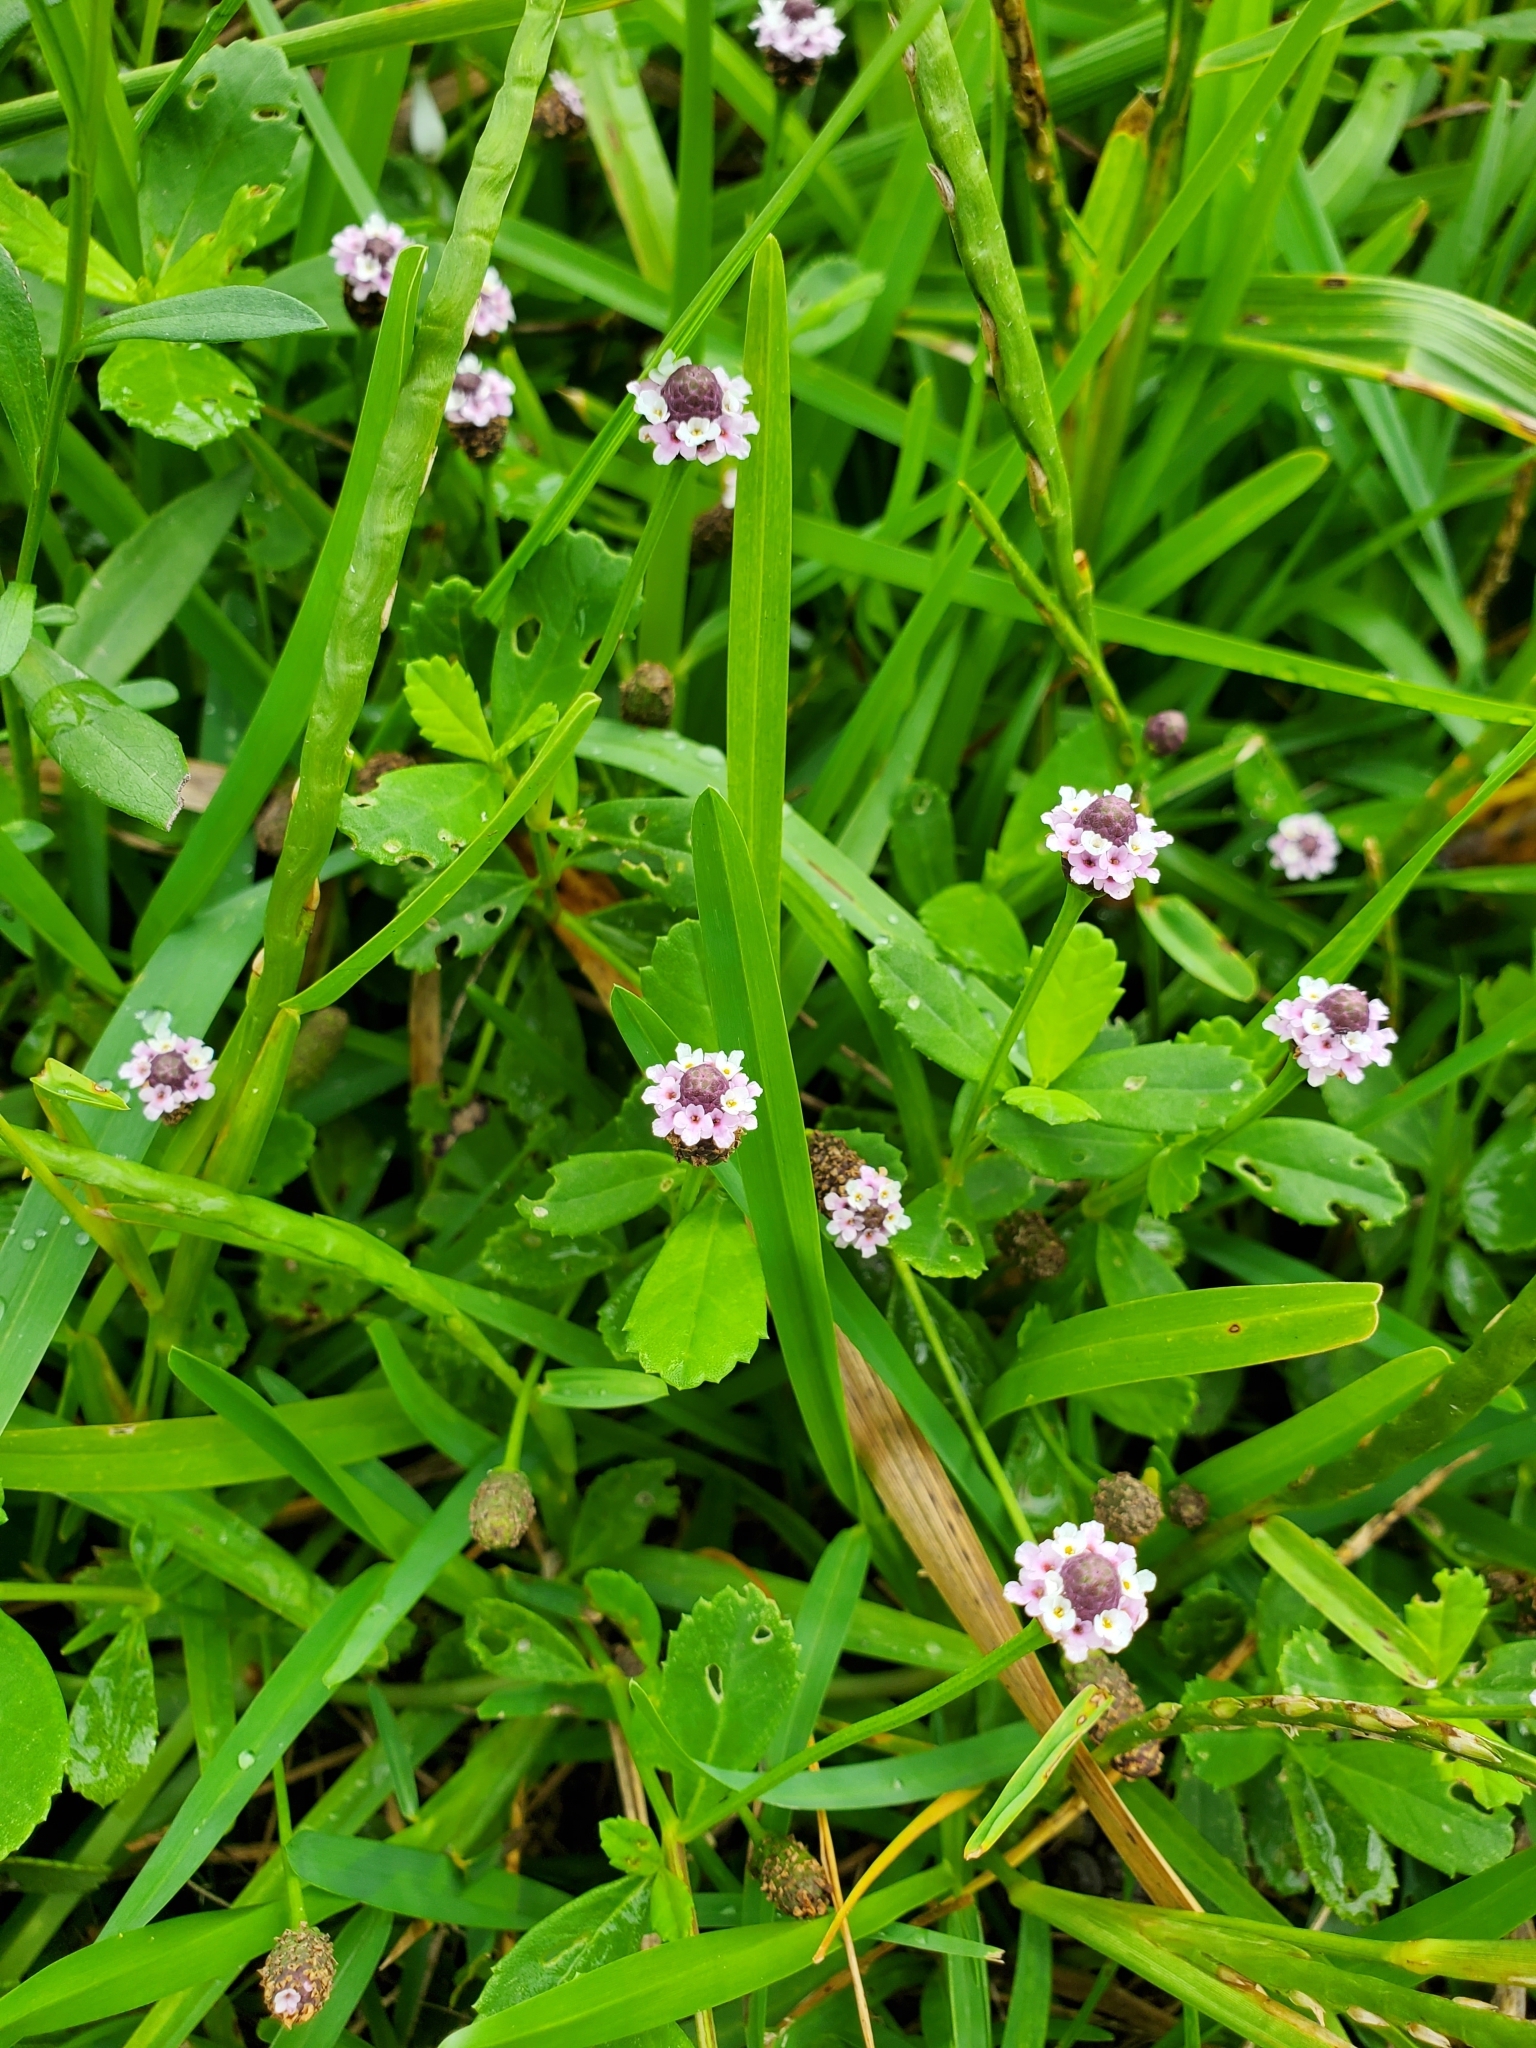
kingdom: Plantae
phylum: Tracheophyta
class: Magnoliopsida
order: Lamiales
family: Verbenaceae
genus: Phyla
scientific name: Phyla nodiflora
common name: Frogfruit
